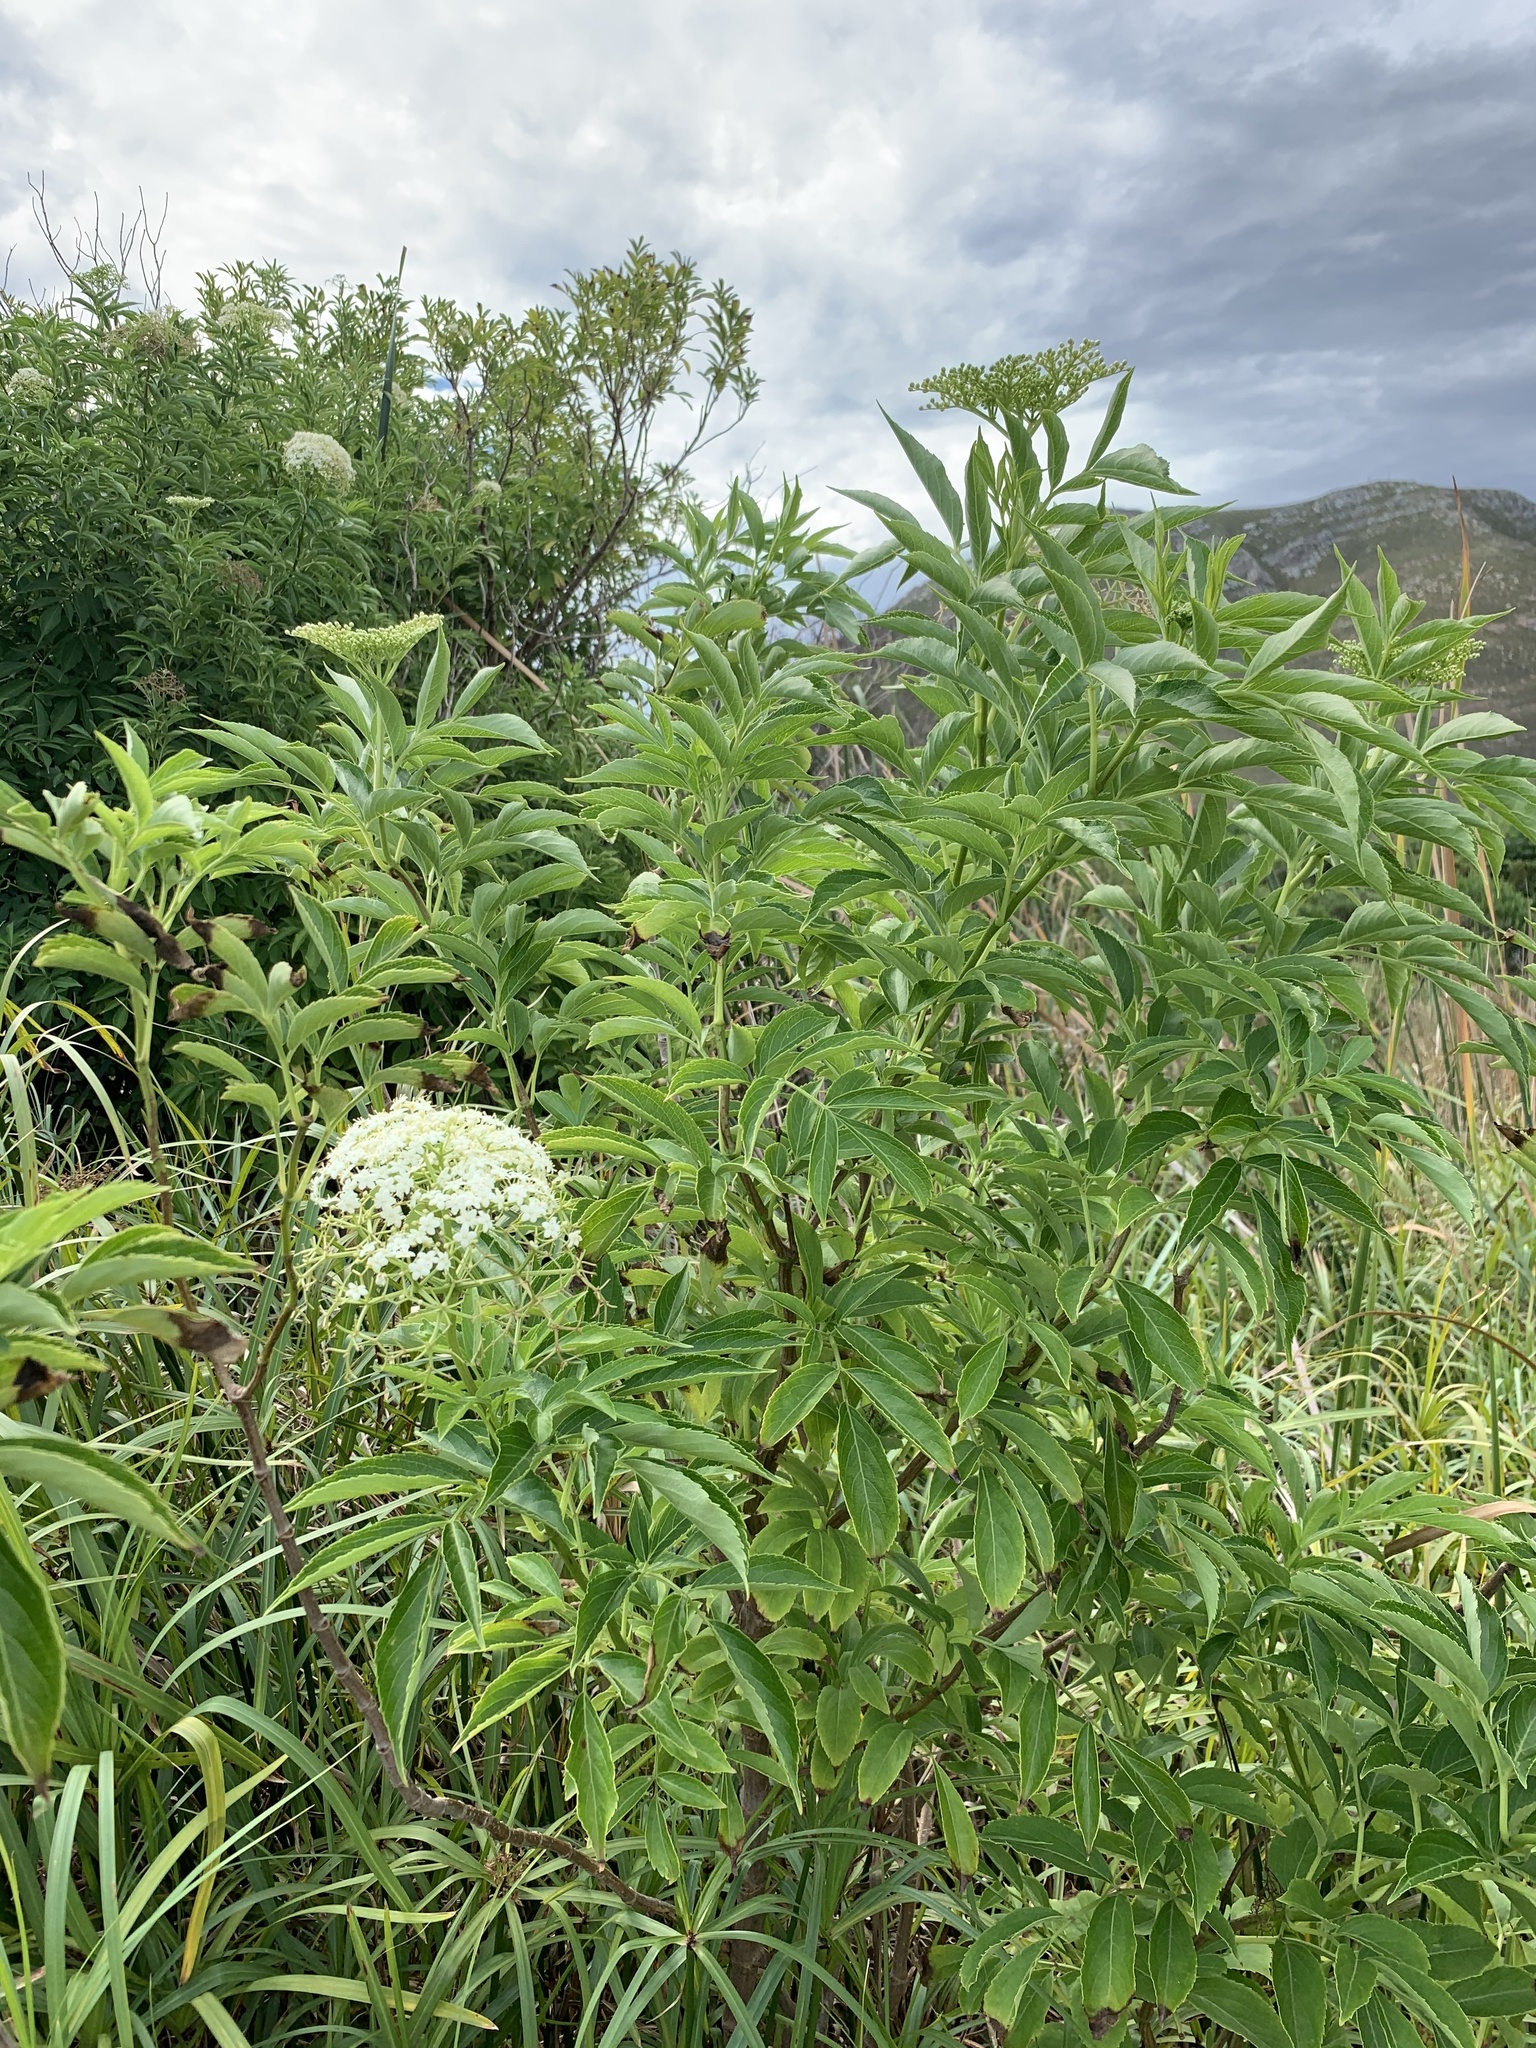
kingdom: Plantae
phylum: Tracheophyta
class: Magnoliopsida
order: Dipsacales
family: Viburnaceae
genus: Sambucus
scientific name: Sambucus nigra
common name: Elder
